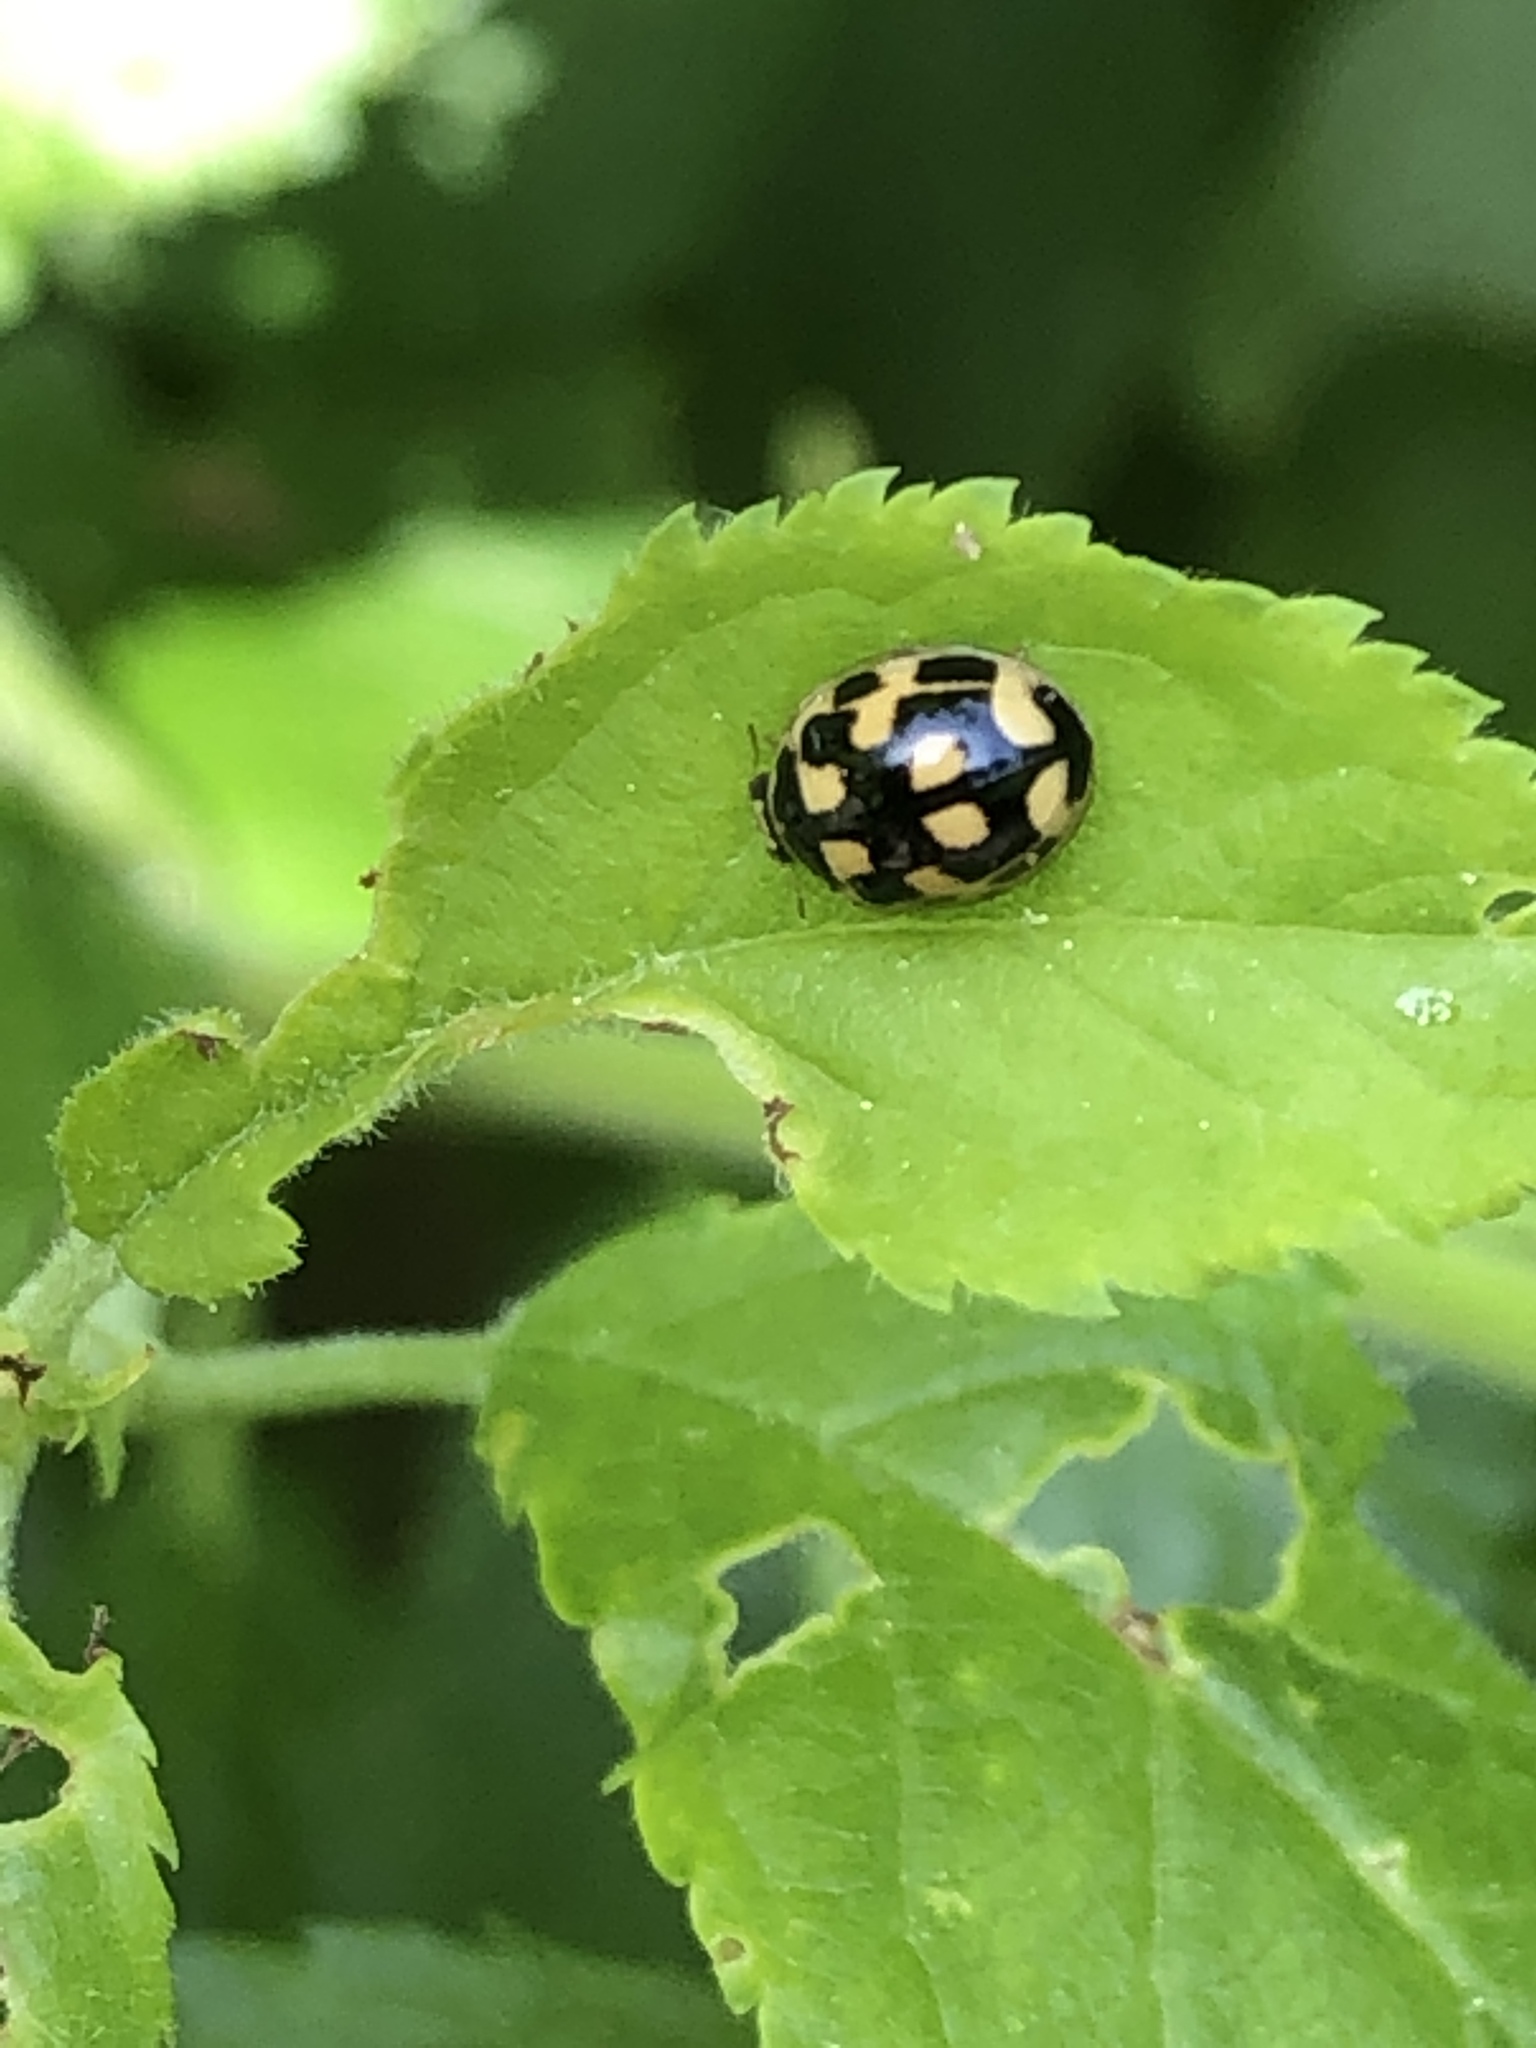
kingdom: Animalia
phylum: Arthropoda
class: Insecta
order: Coleoptera
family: Coccinellidae
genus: Propylaea
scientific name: Propylaea quatuordecimpunctata
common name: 14-spotted ladybird beetle
